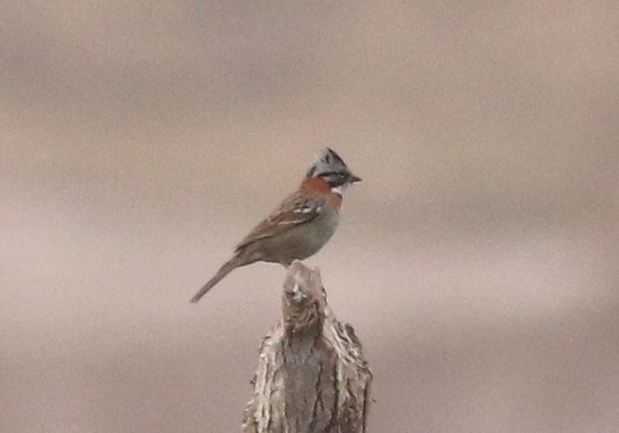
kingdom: Animalia
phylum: Chordata
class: Aves
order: Passeriformes
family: Passerellidae
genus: Zonotrichia
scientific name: Zonotrichia capensis
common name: Rufous-collared sparrow
